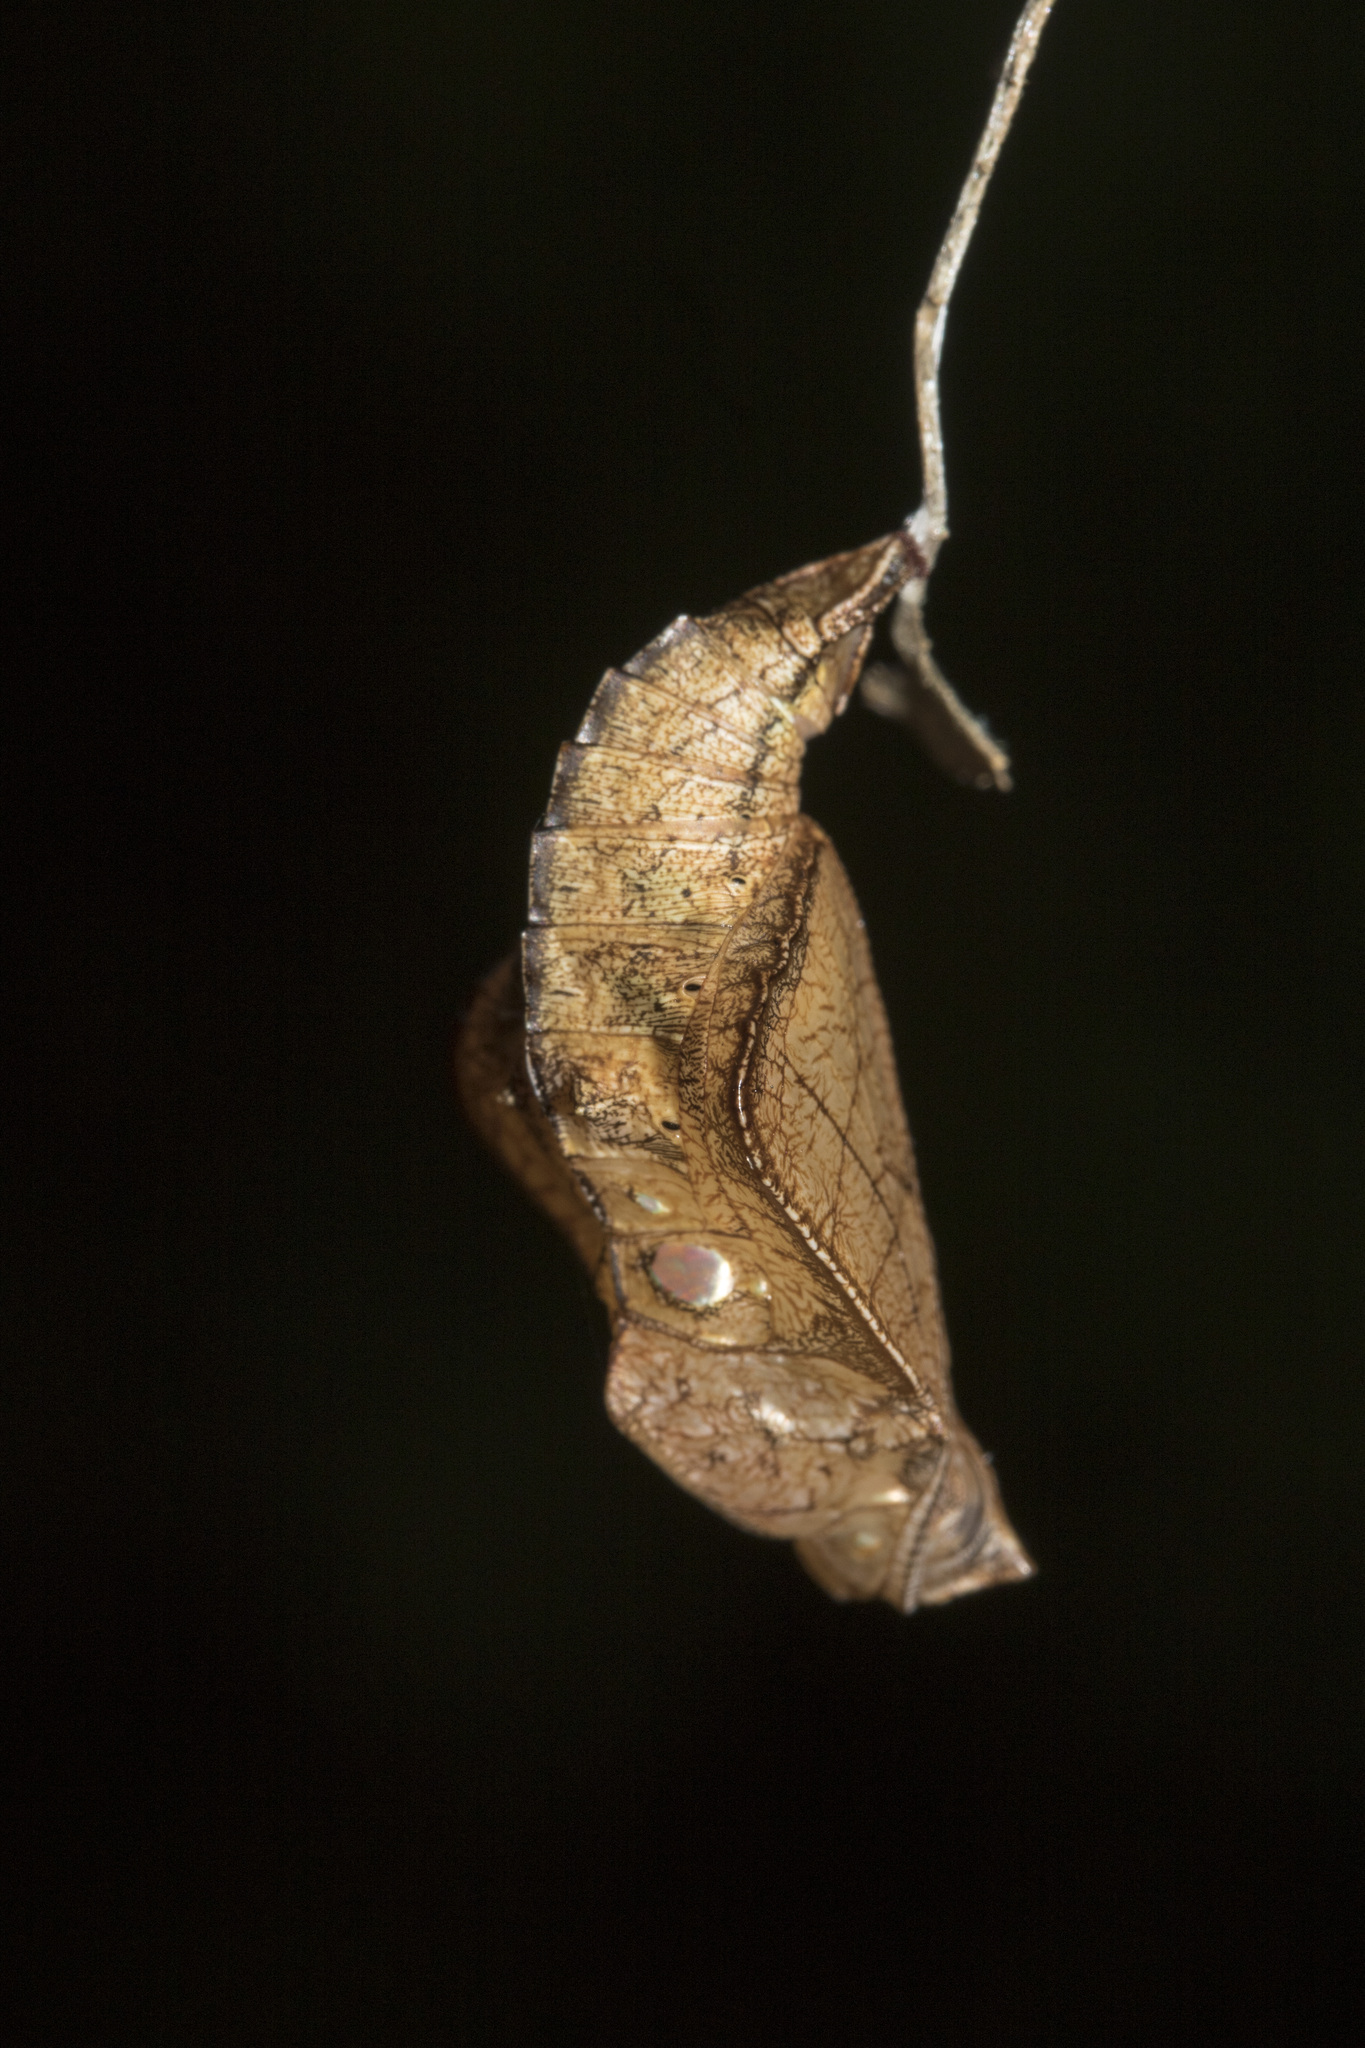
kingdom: Animalia
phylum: Arthropoda
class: Insecta
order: Lepidoptera
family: Nymphalidae
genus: Neptis
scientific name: Neptis hylas
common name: Common sailer
